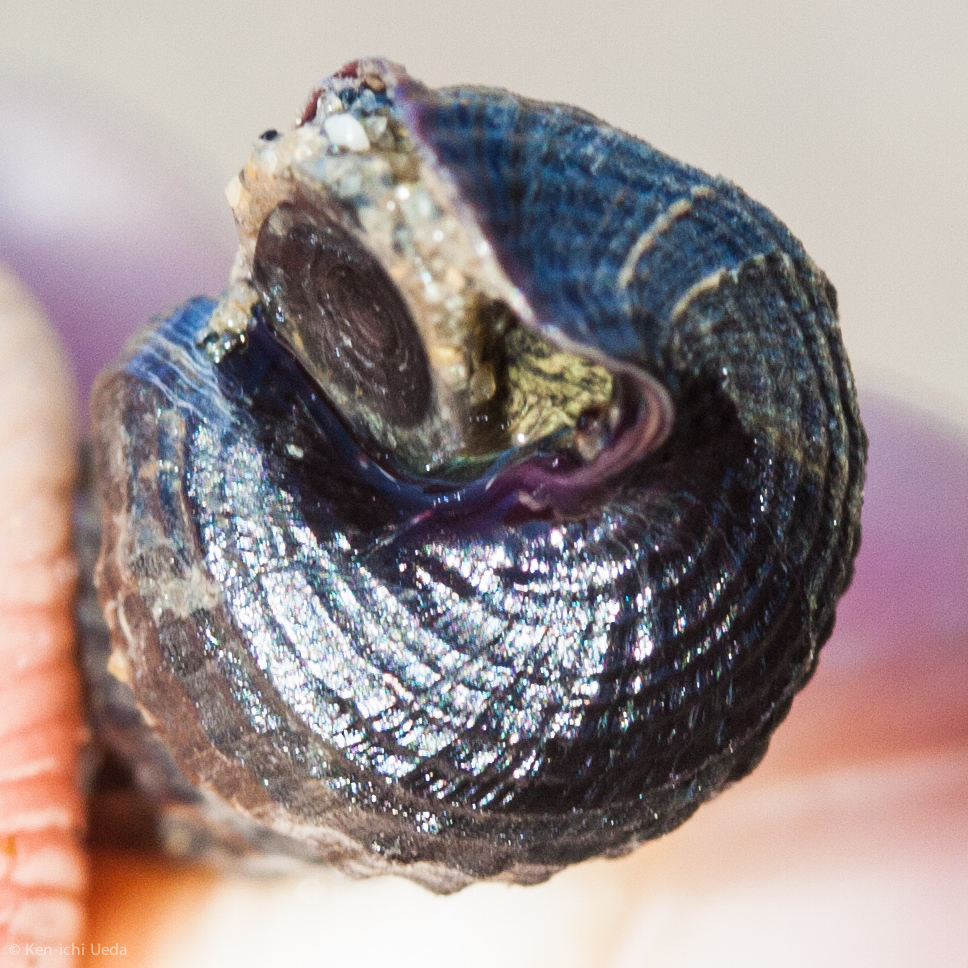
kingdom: Animalia
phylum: Mollusca
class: Gastropoda
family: Potamididae
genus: Cerithideopsis
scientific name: Cerithideopsis californica
